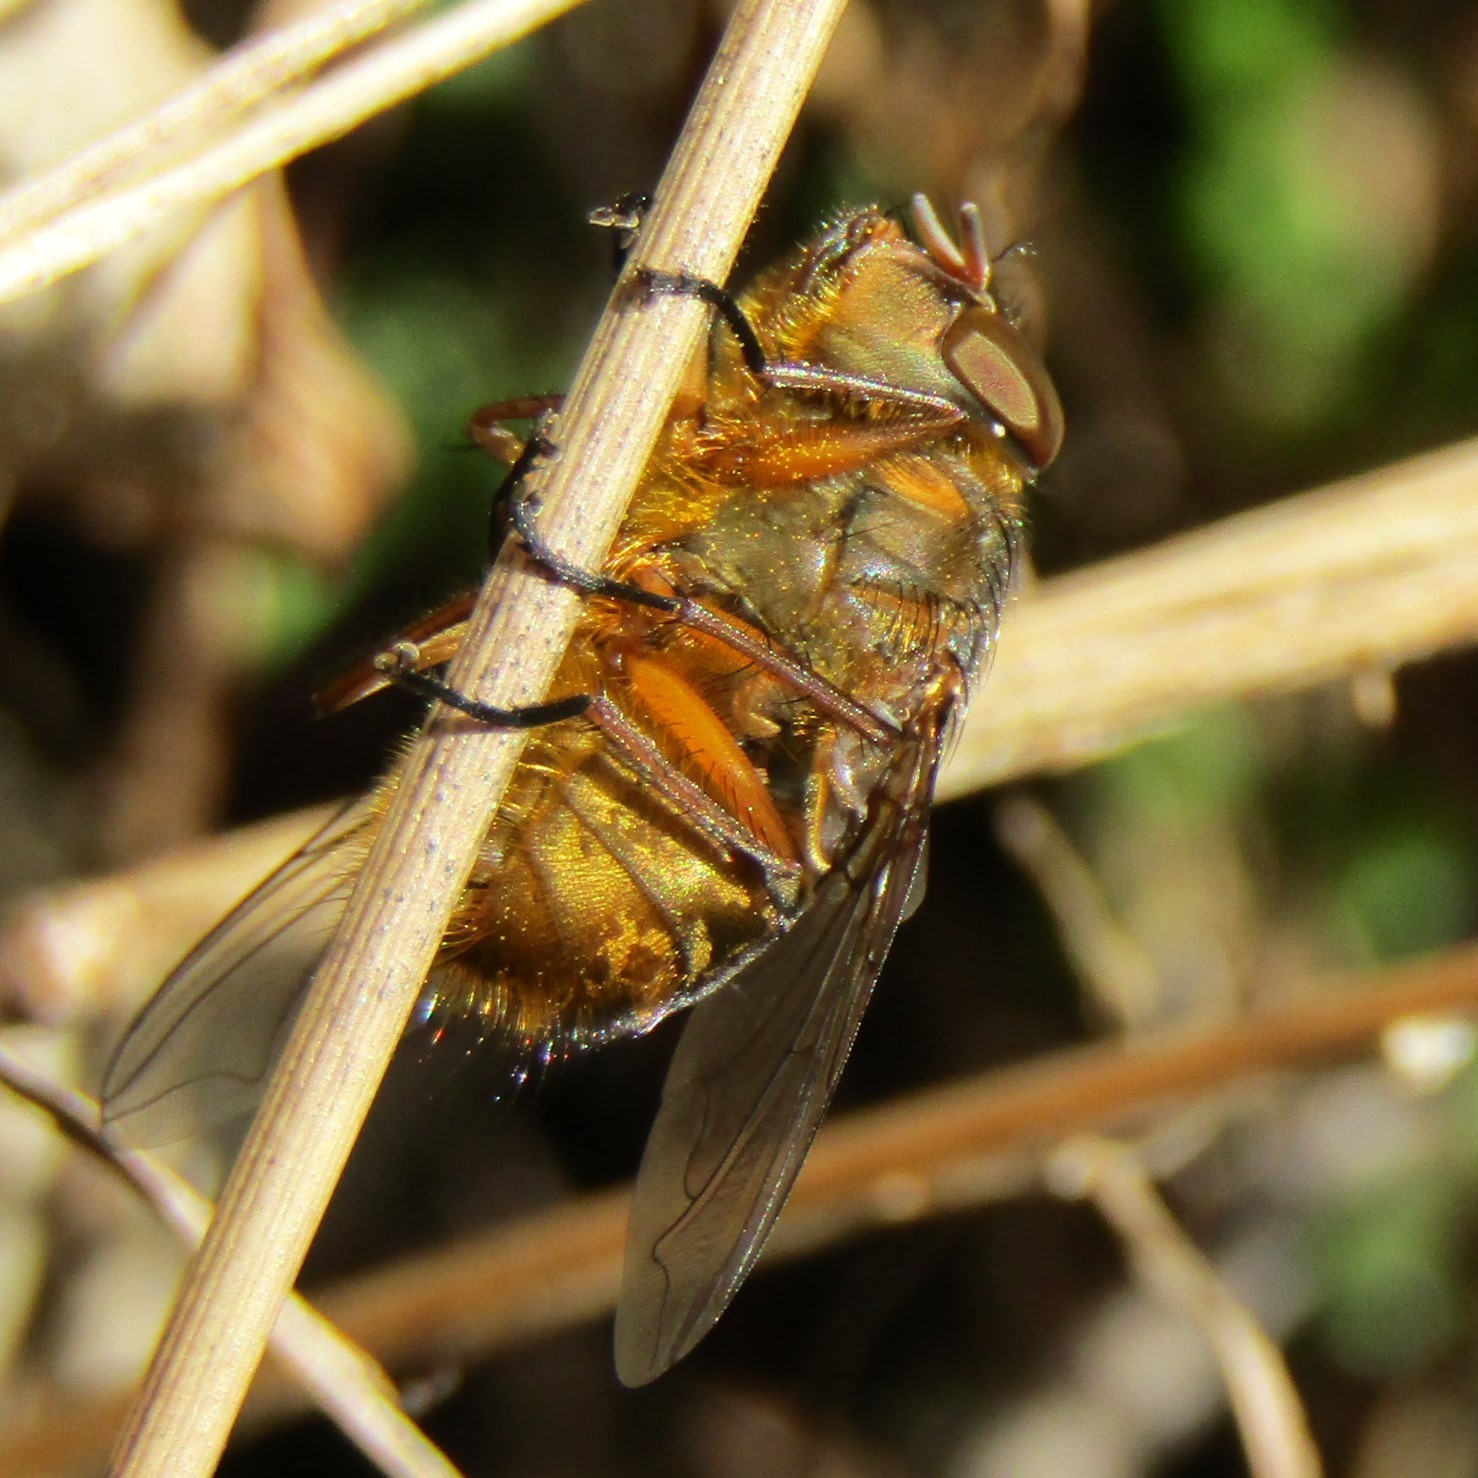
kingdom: Animalia
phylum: Arthropoda
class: Insecta
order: Diptera
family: Calliphoridae
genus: Calliphora
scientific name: Calliphora stygia
